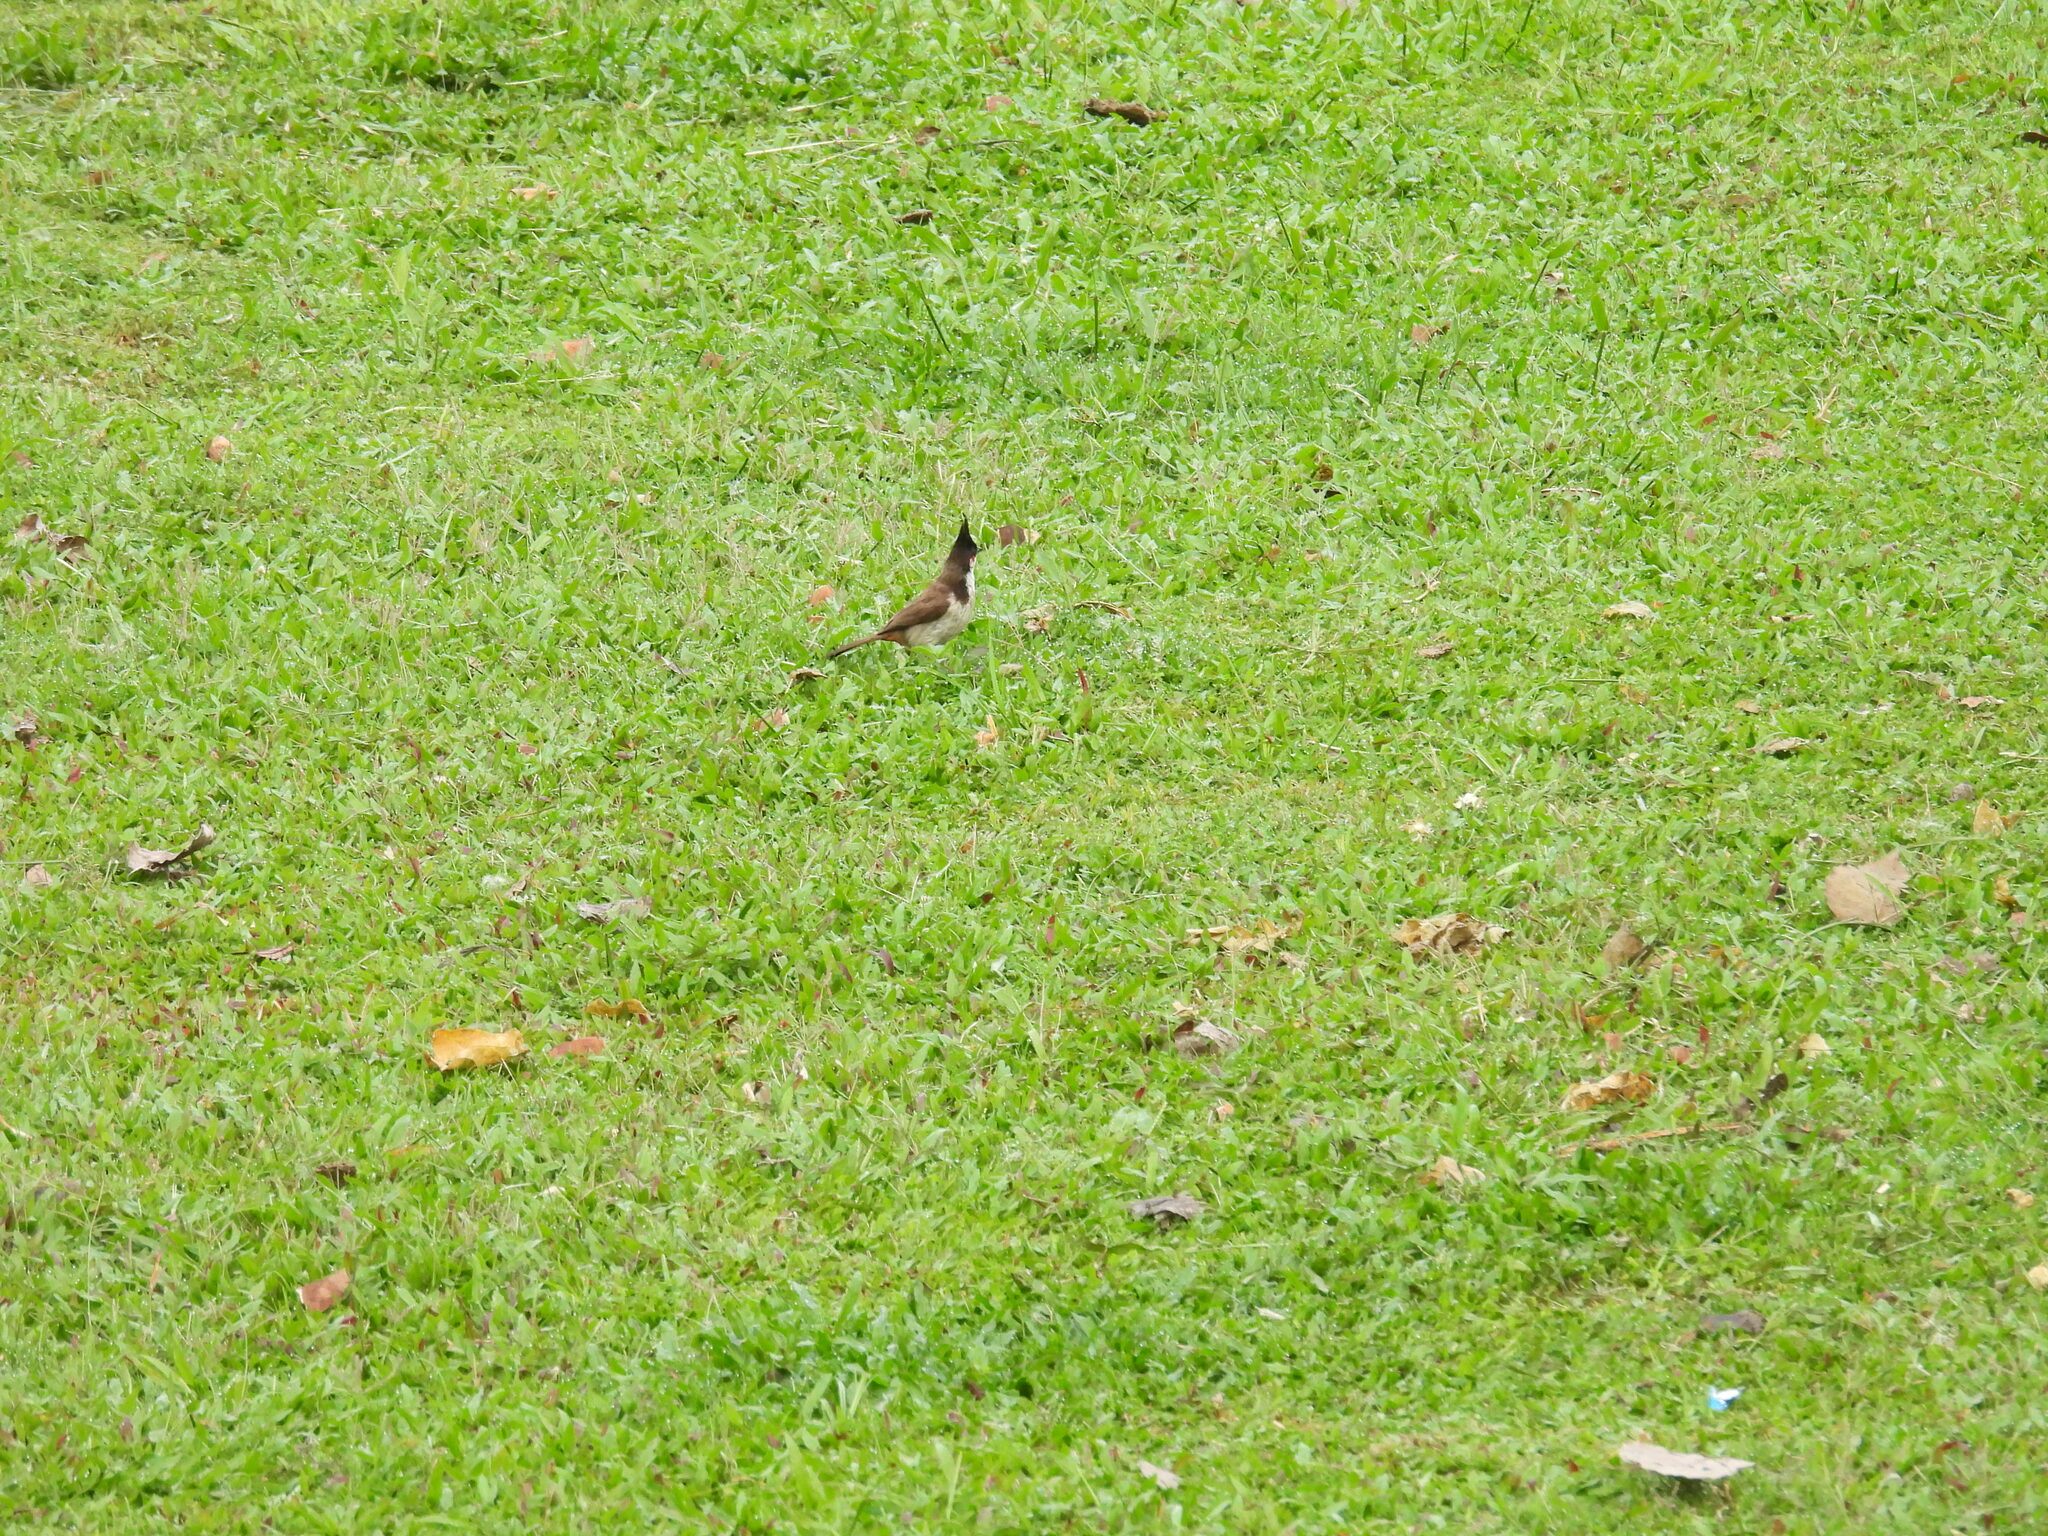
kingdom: Animalia
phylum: Chordata
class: Aves
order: Passeriformes
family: Pycnonotidae
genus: Pycnonotus
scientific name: Pycnonotus jocosus
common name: Red-whiskered bulbul
